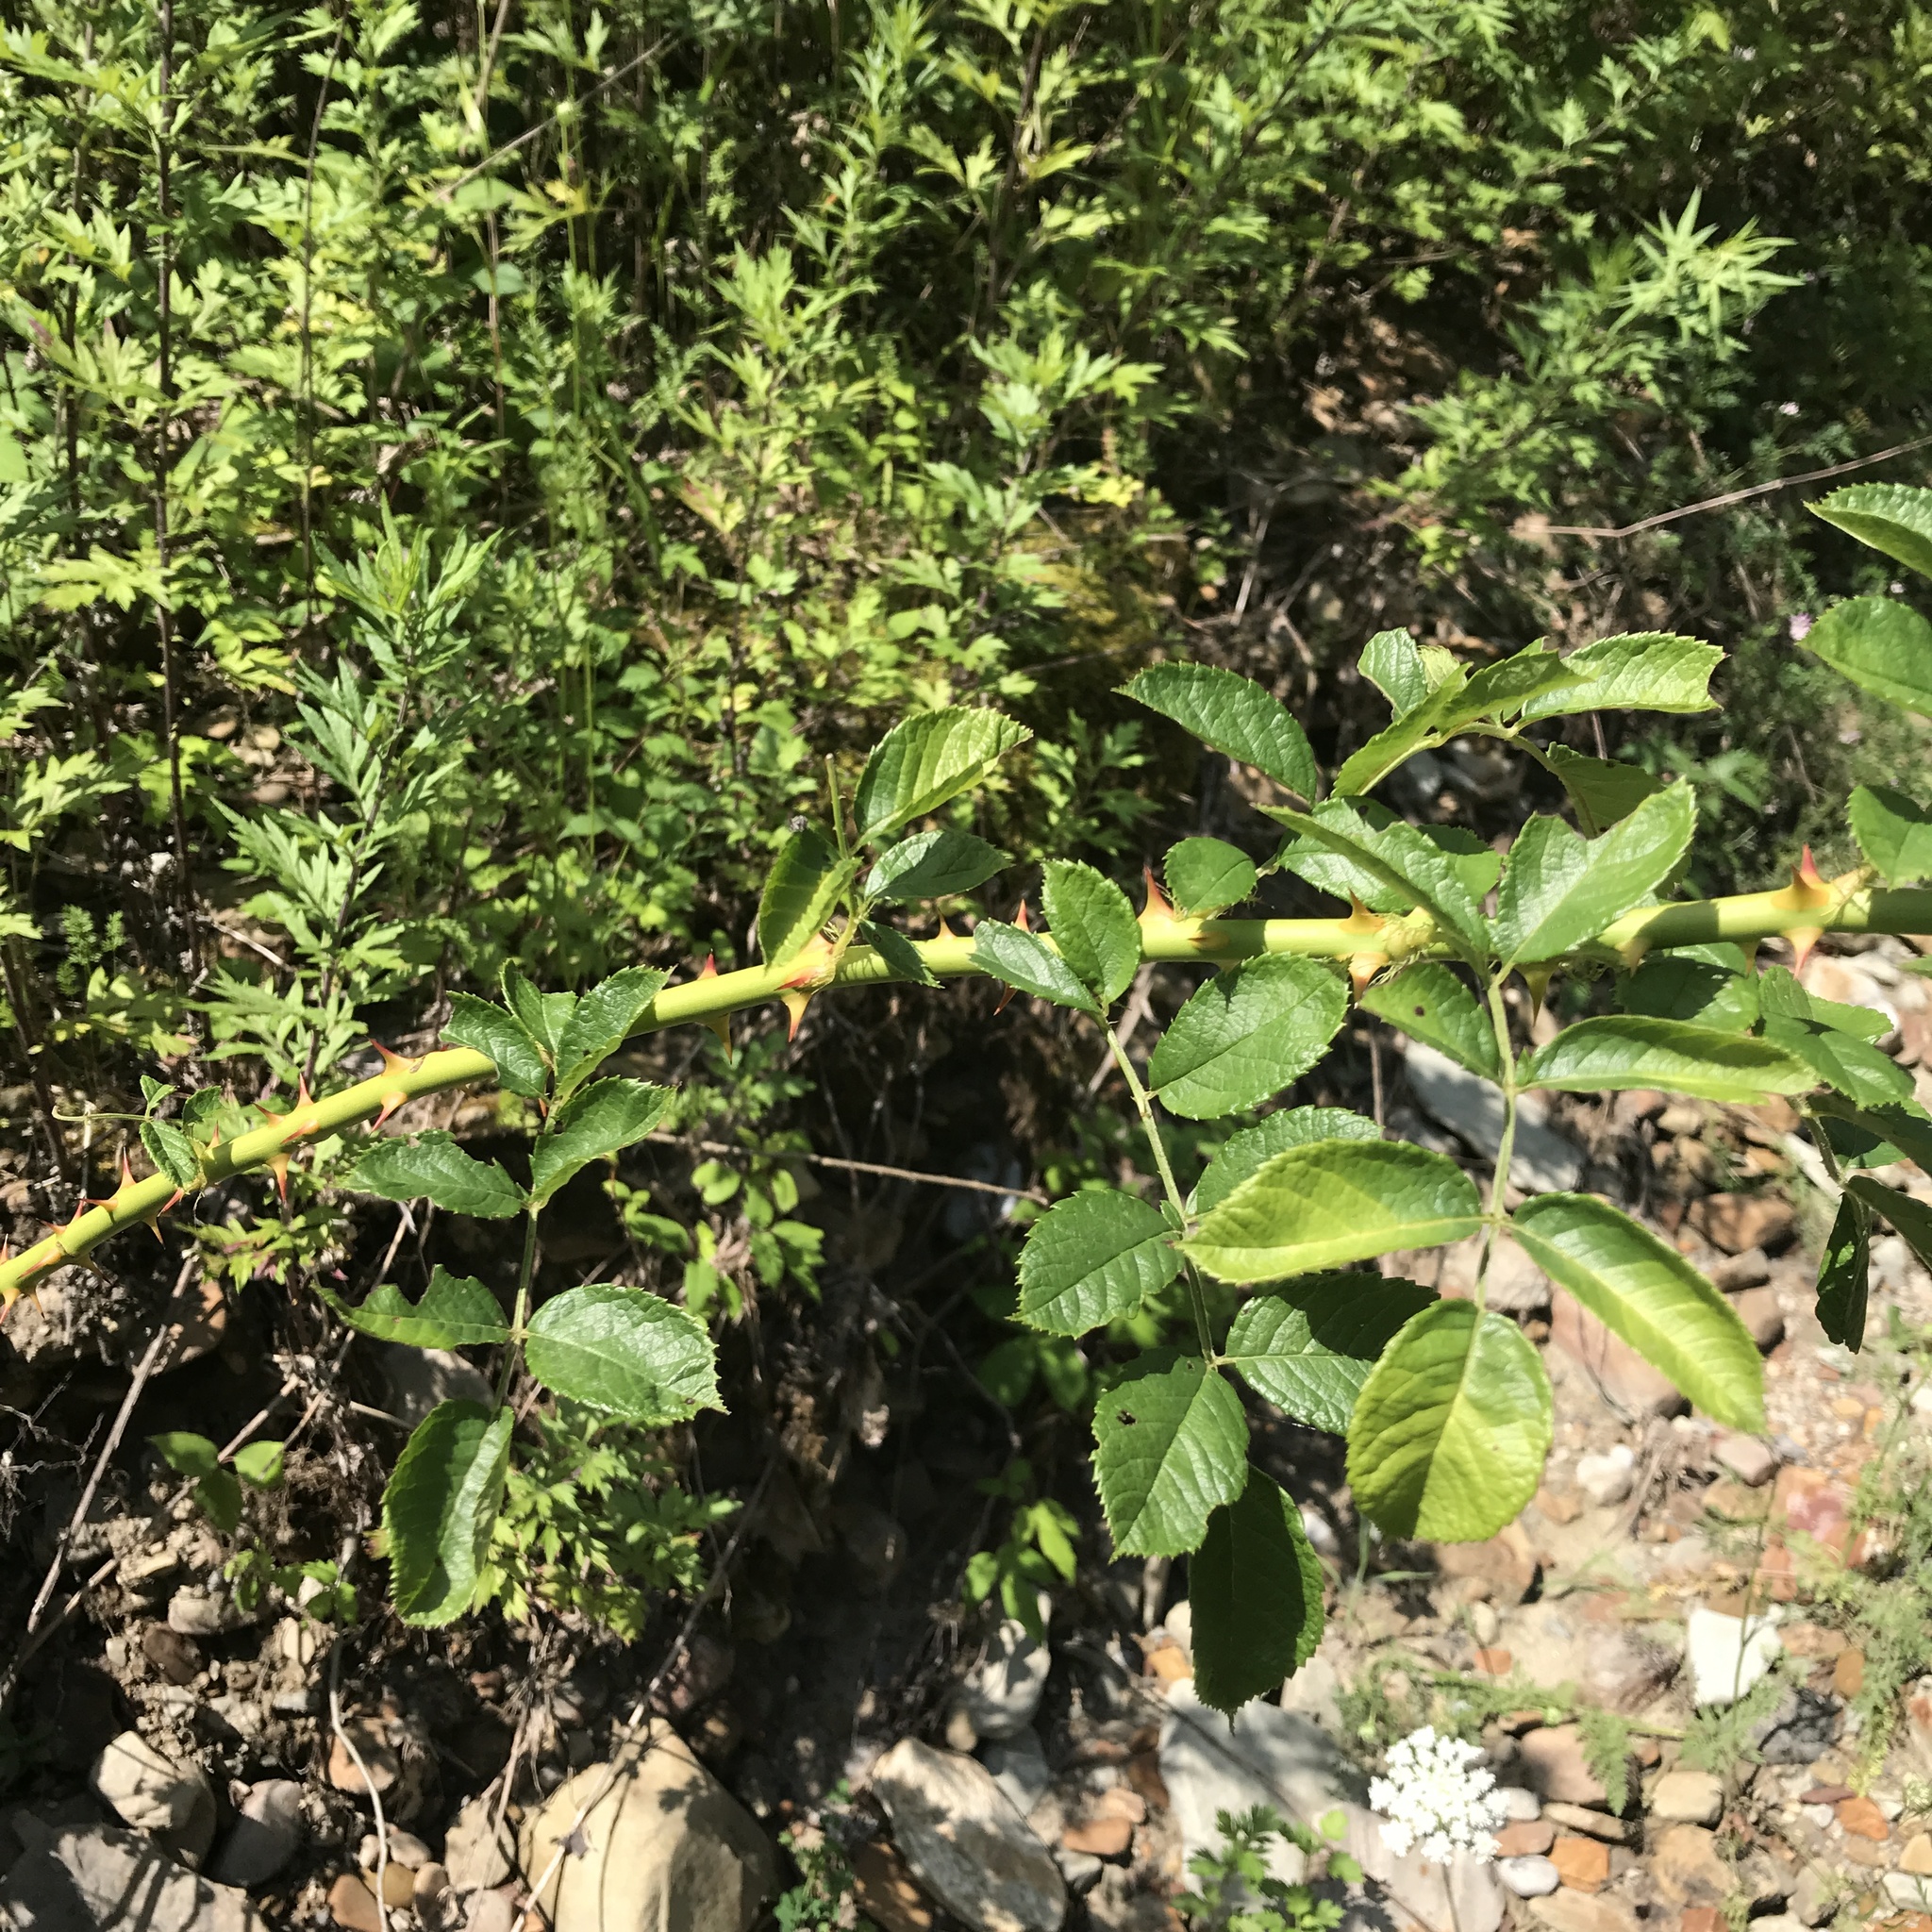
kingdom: Plantae
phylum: Tracheophyta
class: Magnoliopsida
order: Rosales
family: Rosaceae
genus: Rosa
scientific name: Rosa multiflora
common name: Multiflora rose
